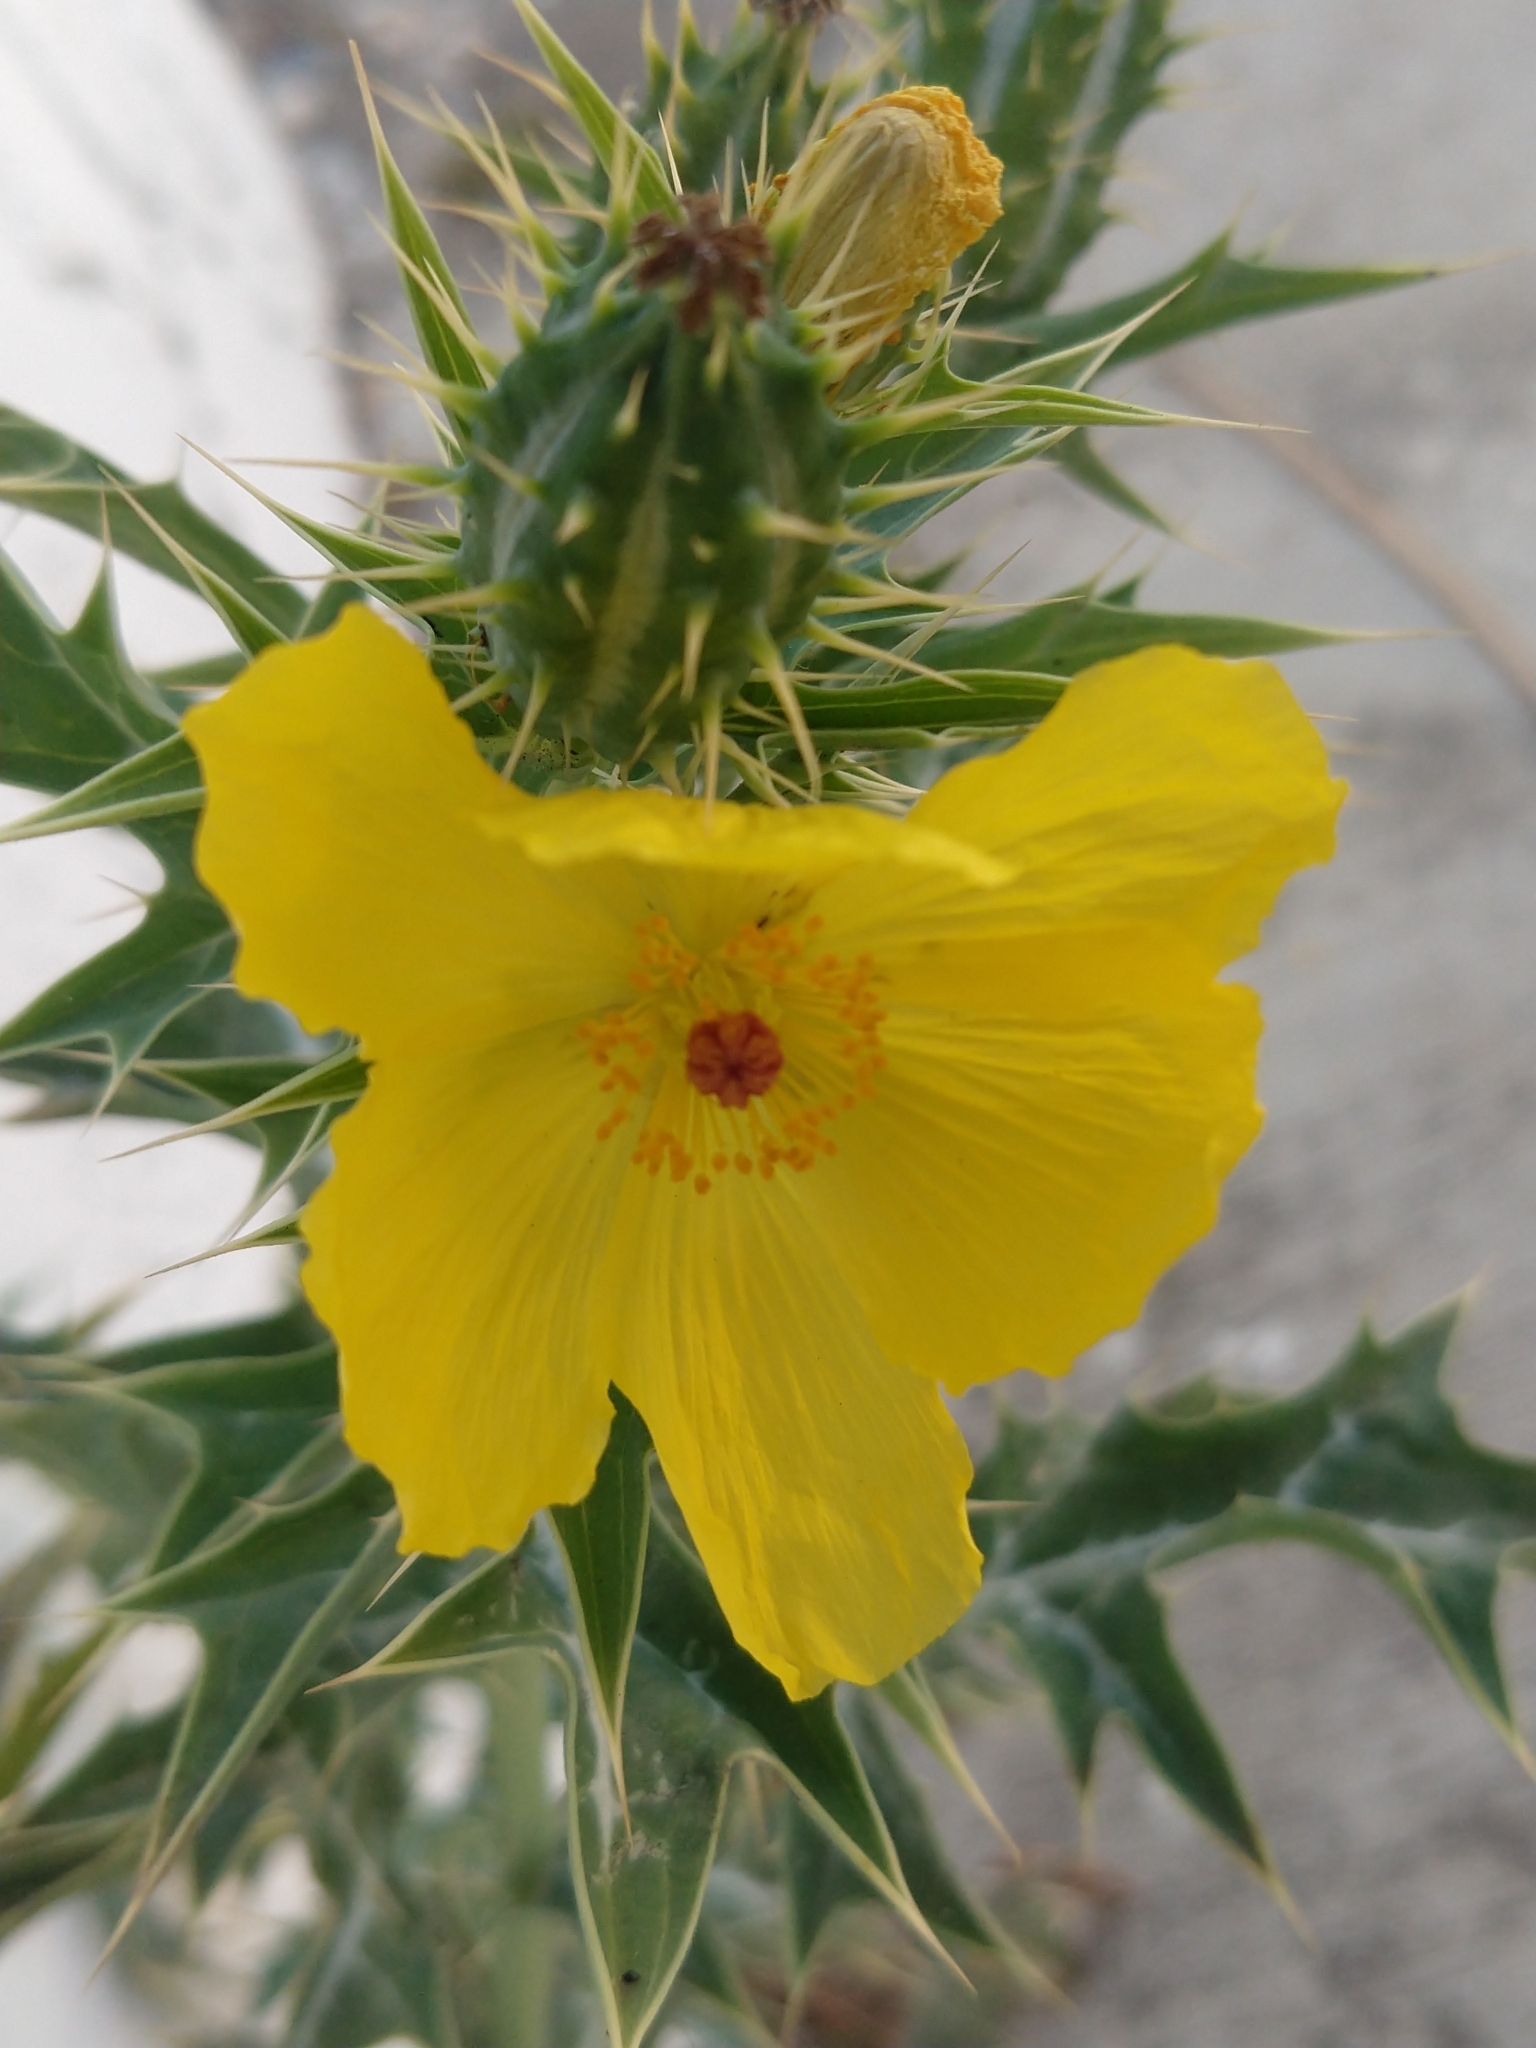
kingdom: Plantae
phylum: Tracheophyta
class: Magnoliopsida
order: Ranunculales
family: Papaveraceae
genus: Argemone
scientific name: Argemone mexicana
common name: Mexican poppy
